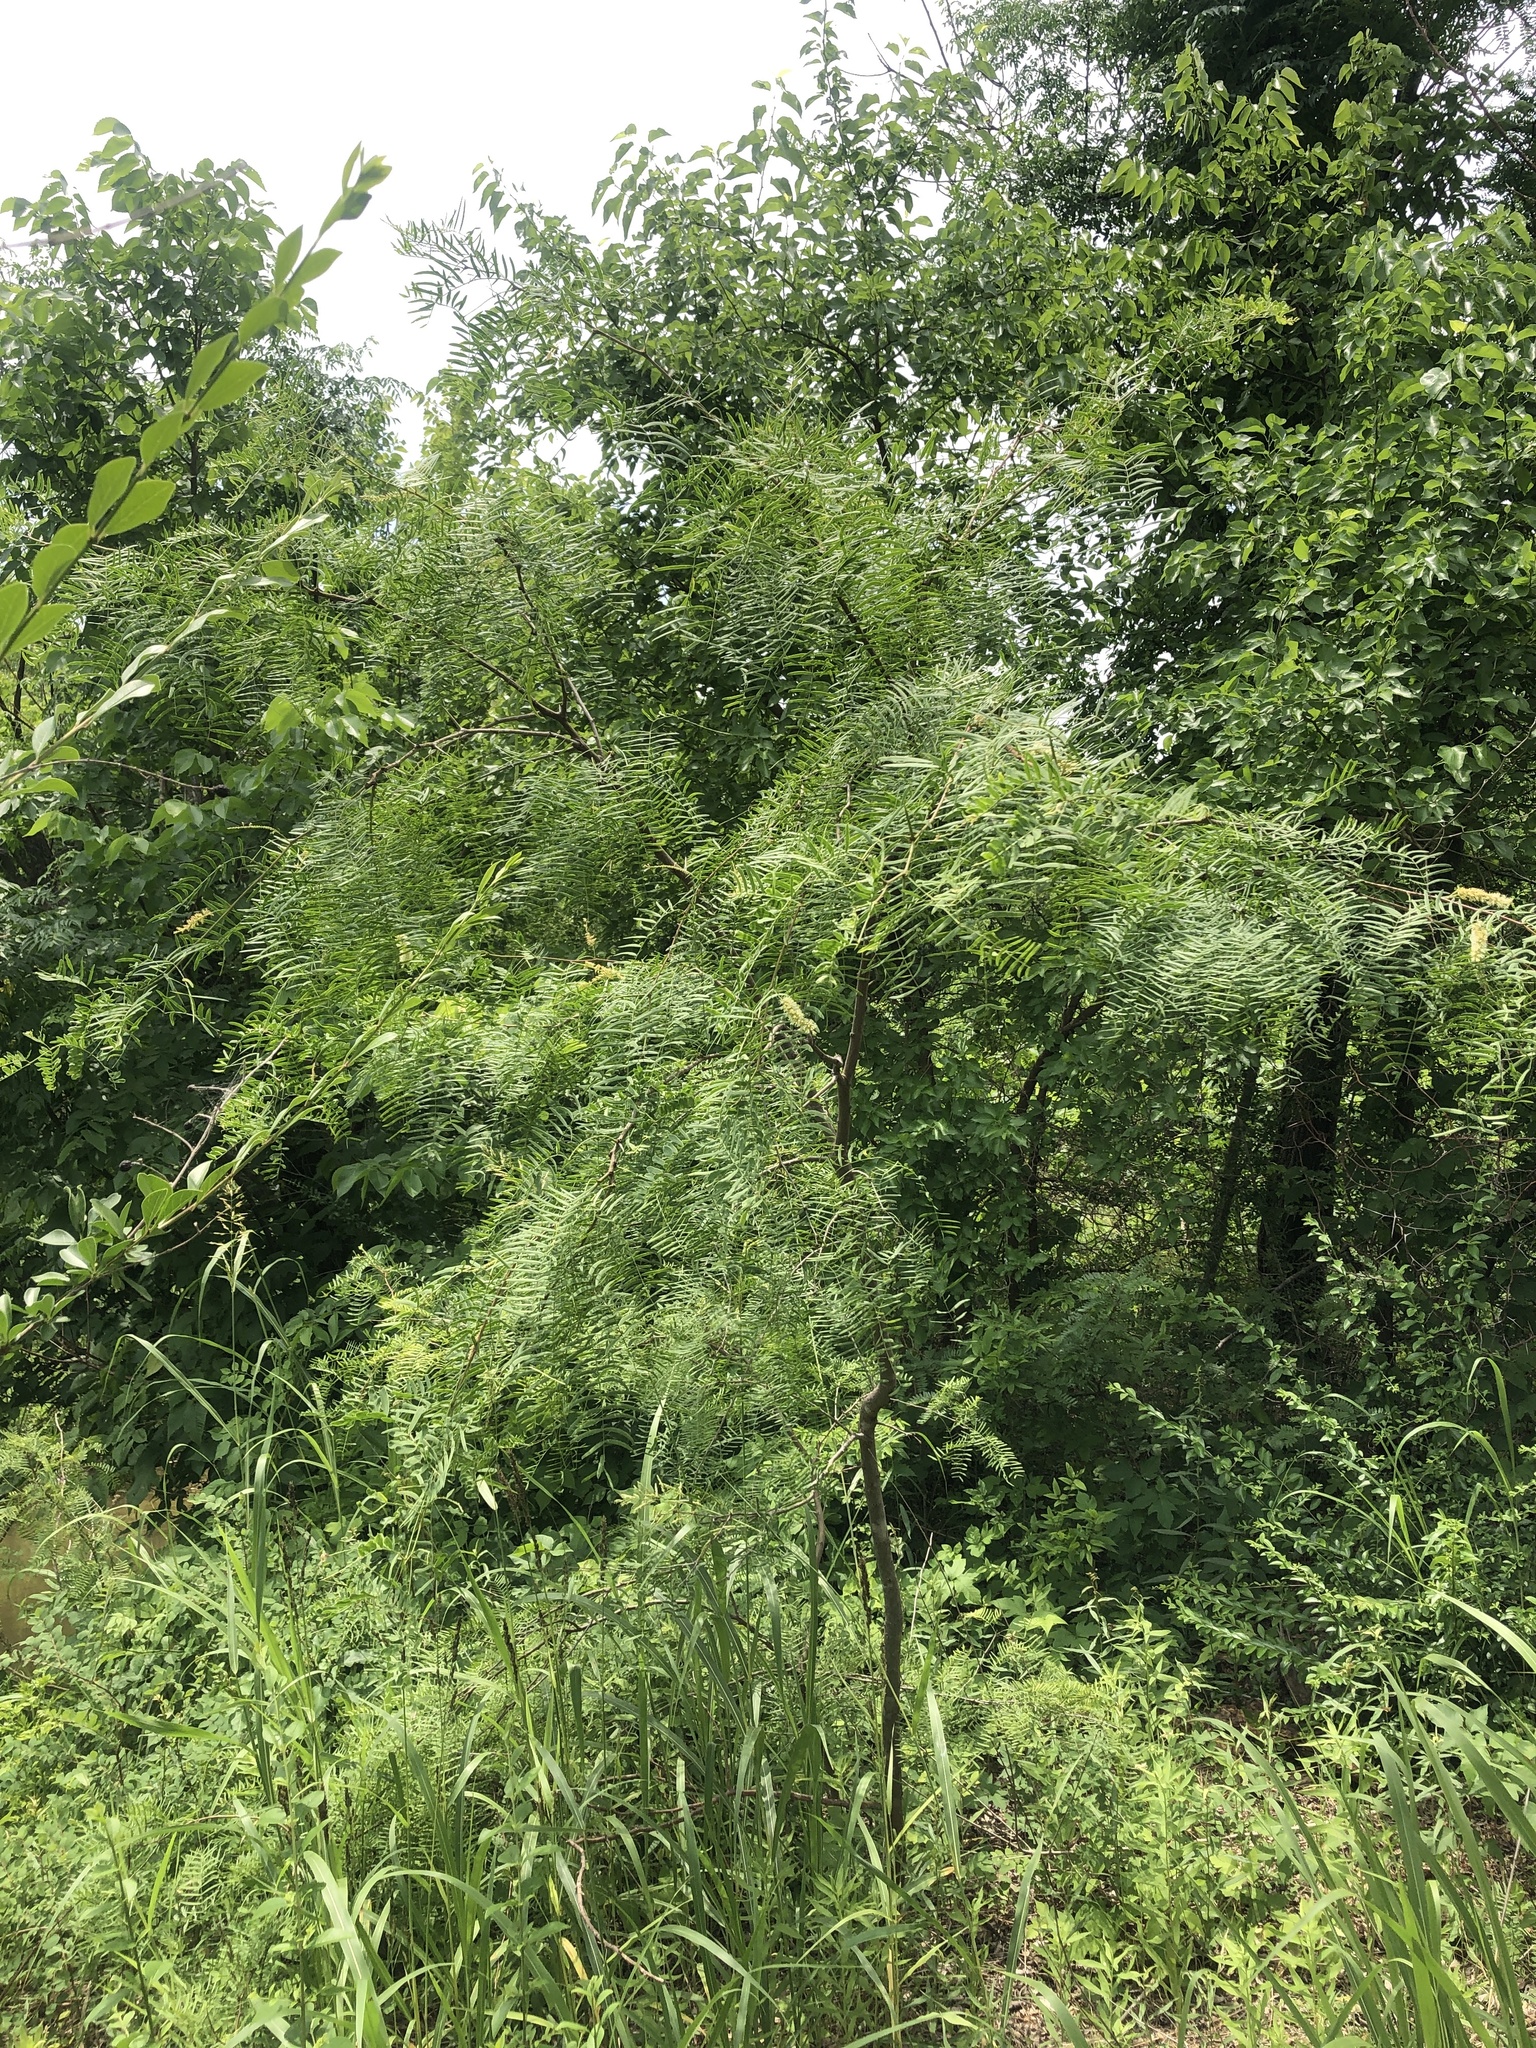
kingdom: Plantae
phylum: Tracheophyta
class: Magnoliopsida
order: Fabales
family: Fabaceae
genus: Prosopis
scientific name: Prosopis glandulosa
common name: Honey mesquite
